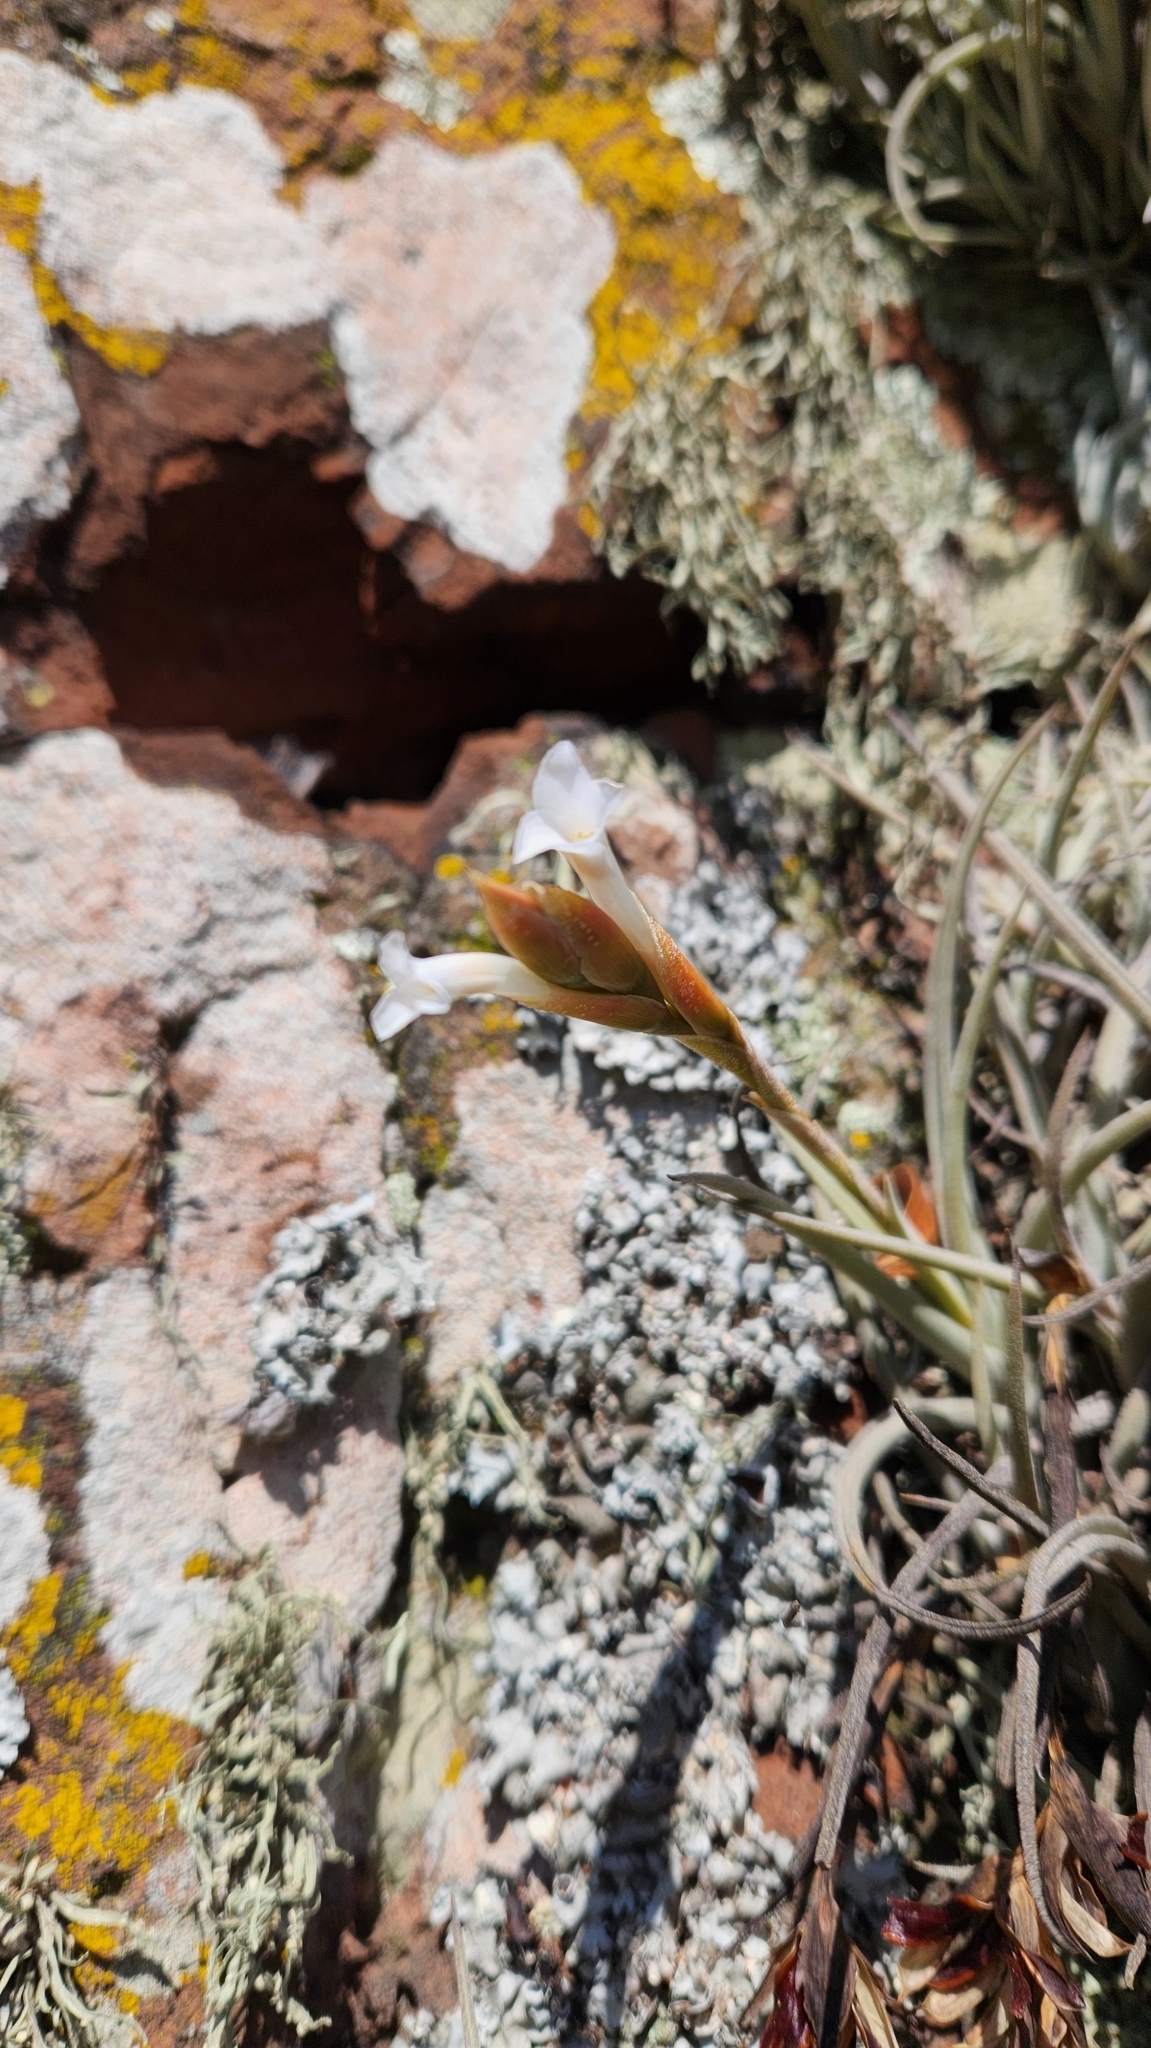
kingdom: Plantae
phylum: Tracheophyta
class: Liliopsida
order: Poales
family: Bromeliaceae
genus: Tillandsia
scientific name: Tillandsia uruguayensis
